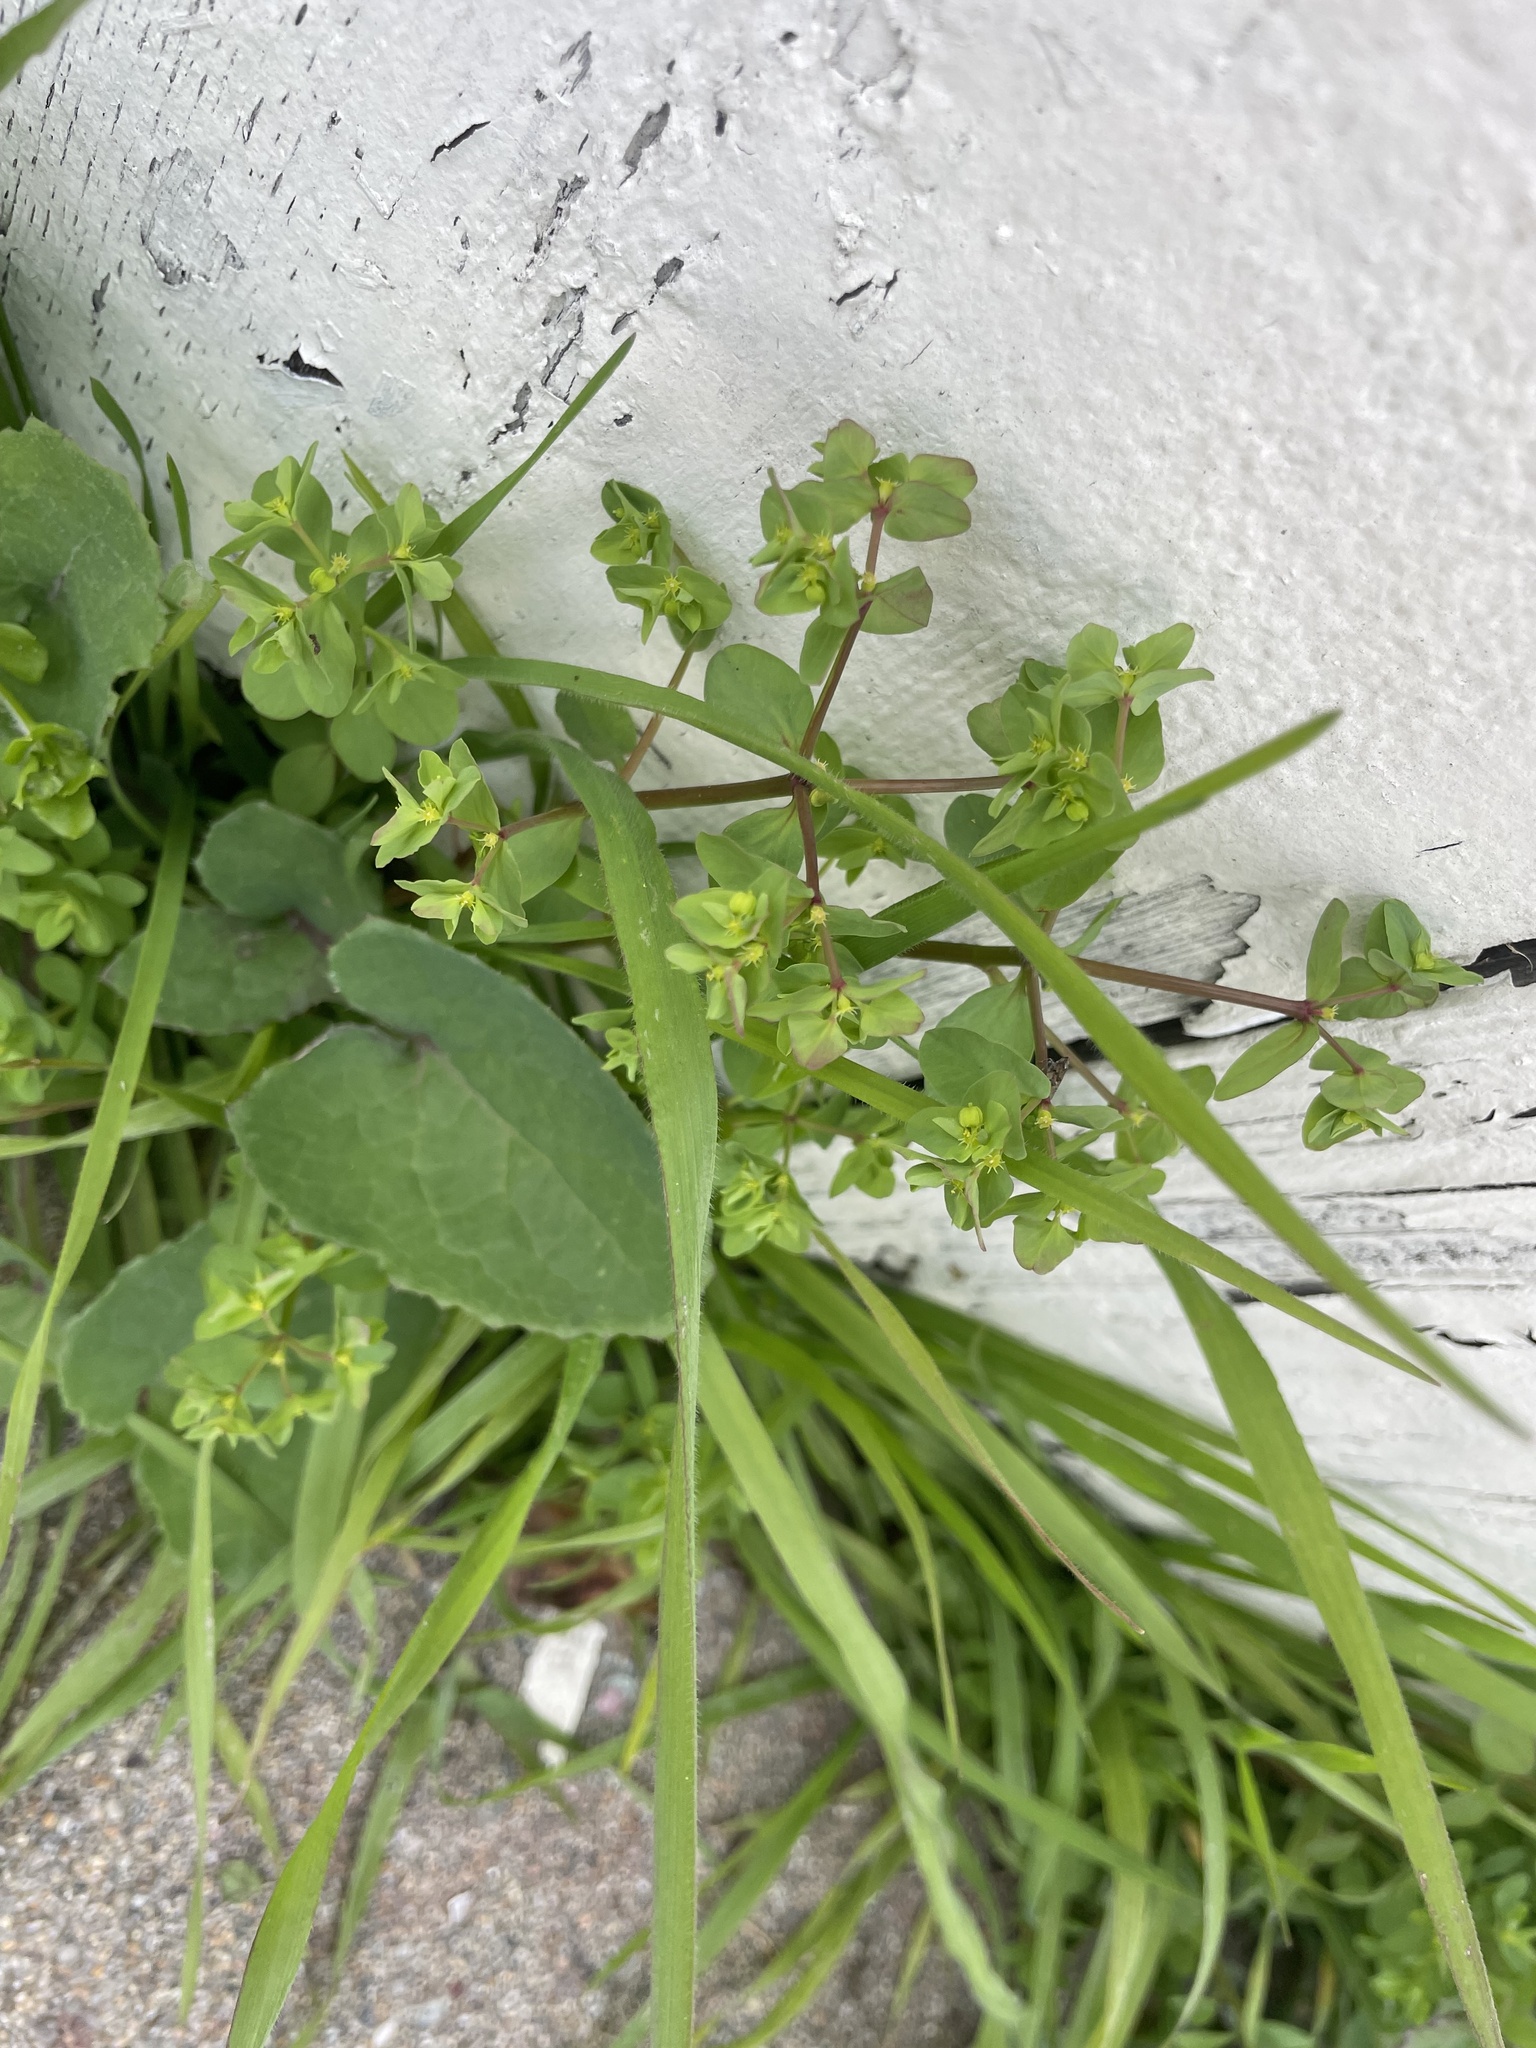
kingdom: Plantae
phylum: Tracheophyta
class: Magnoliopsida
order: Malpighiales
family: Euphorbiaceae
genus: Euphorbia
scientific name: Euphorbia peplus
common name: Petty spurge
